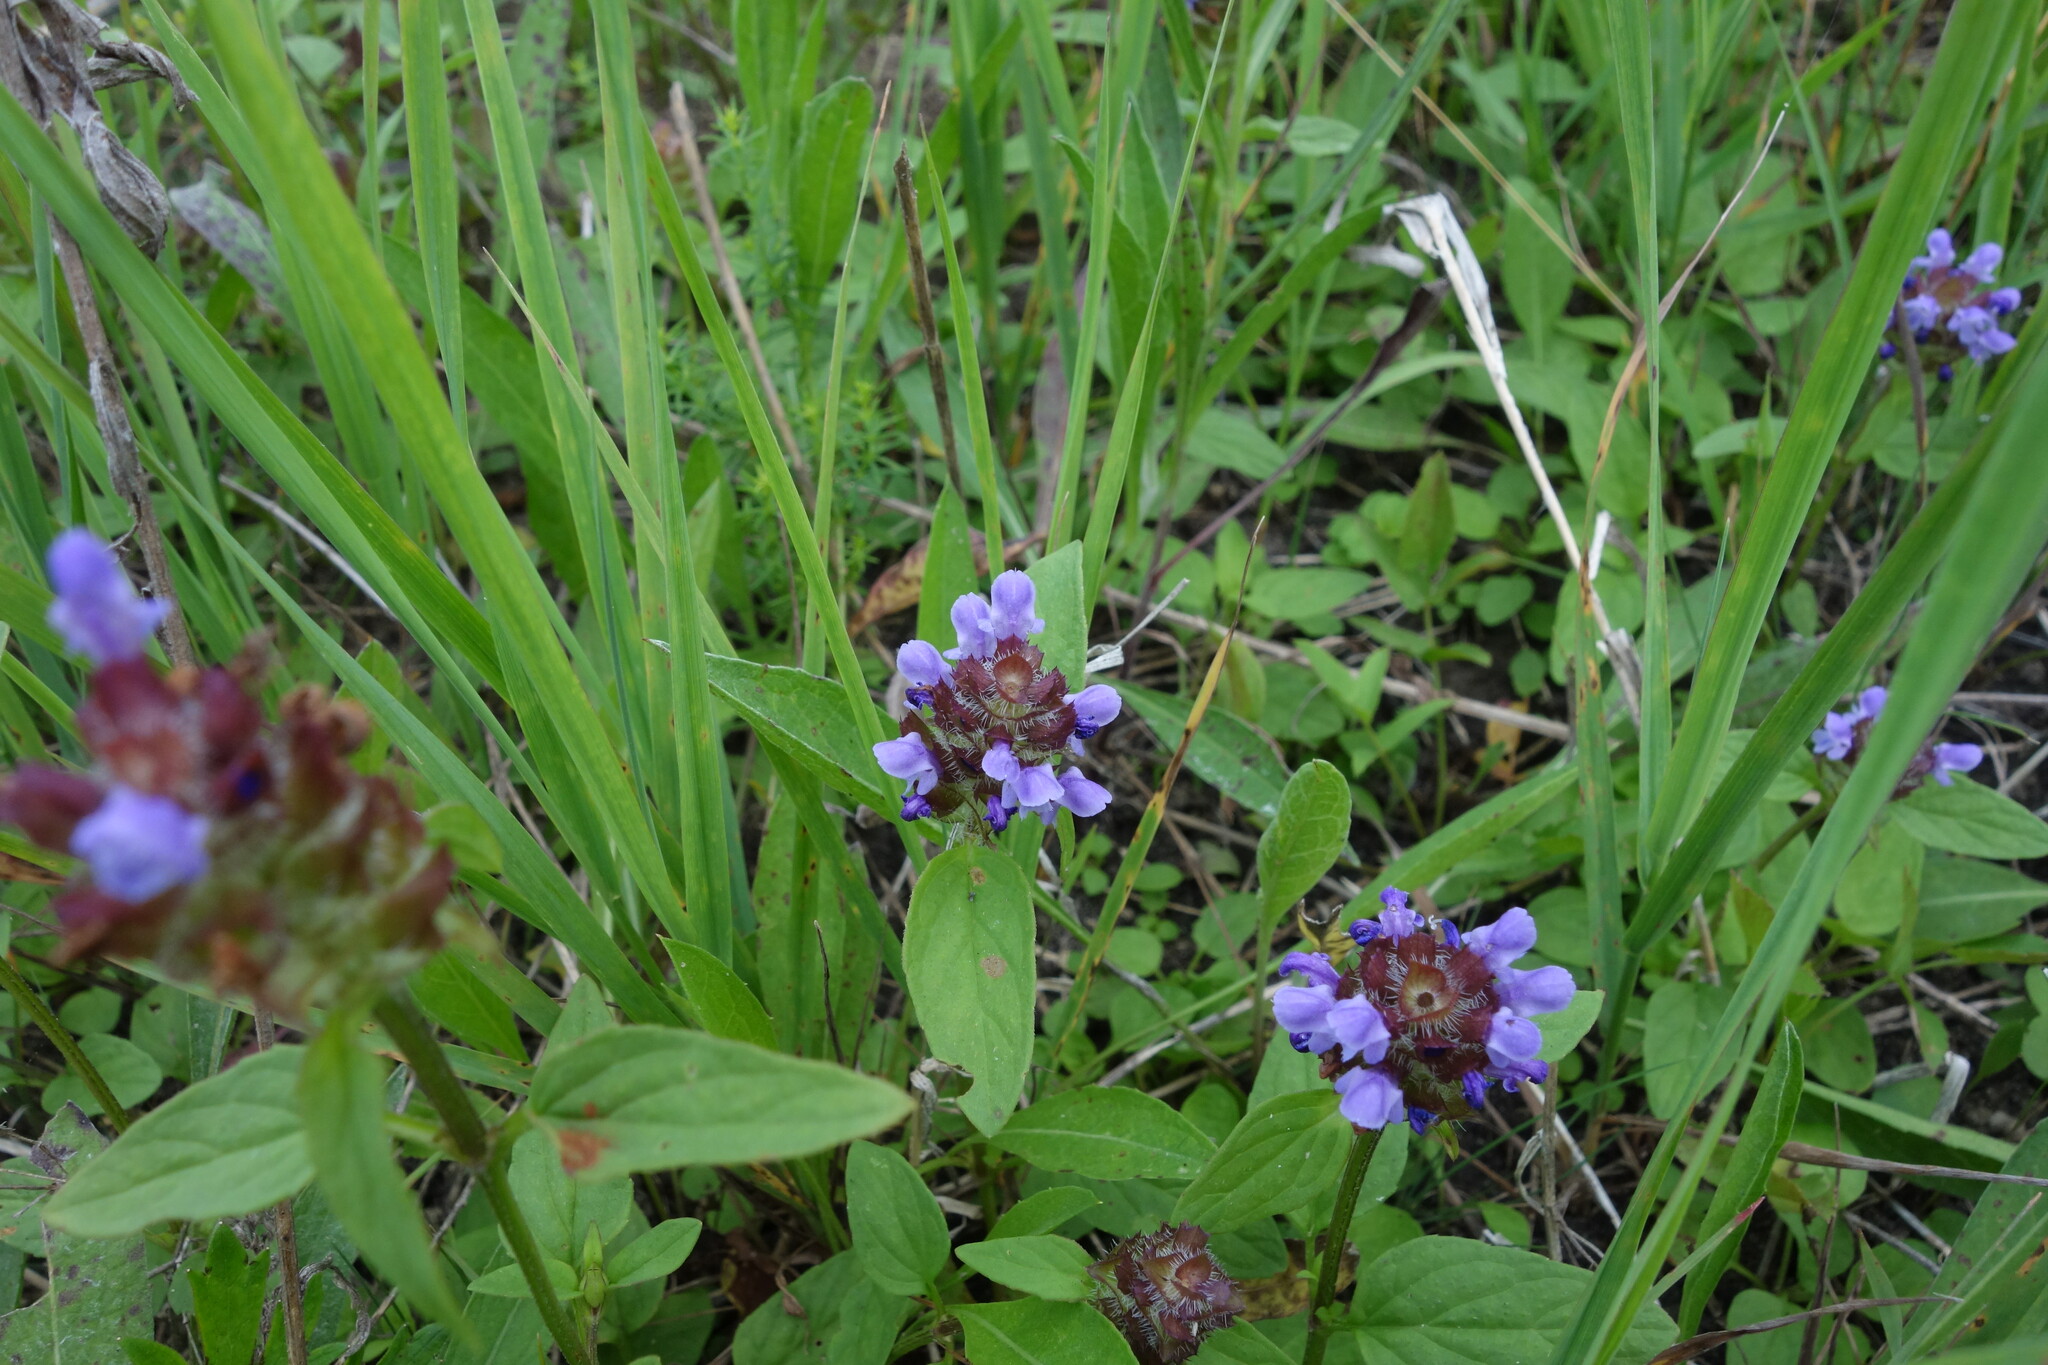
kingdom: Plantae
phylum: Tracheophyta
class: Magnoliopsida
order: Lamiales
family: Lamiaceae
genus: Prunella
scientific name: Prunella vulgaris
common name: Heal-all
